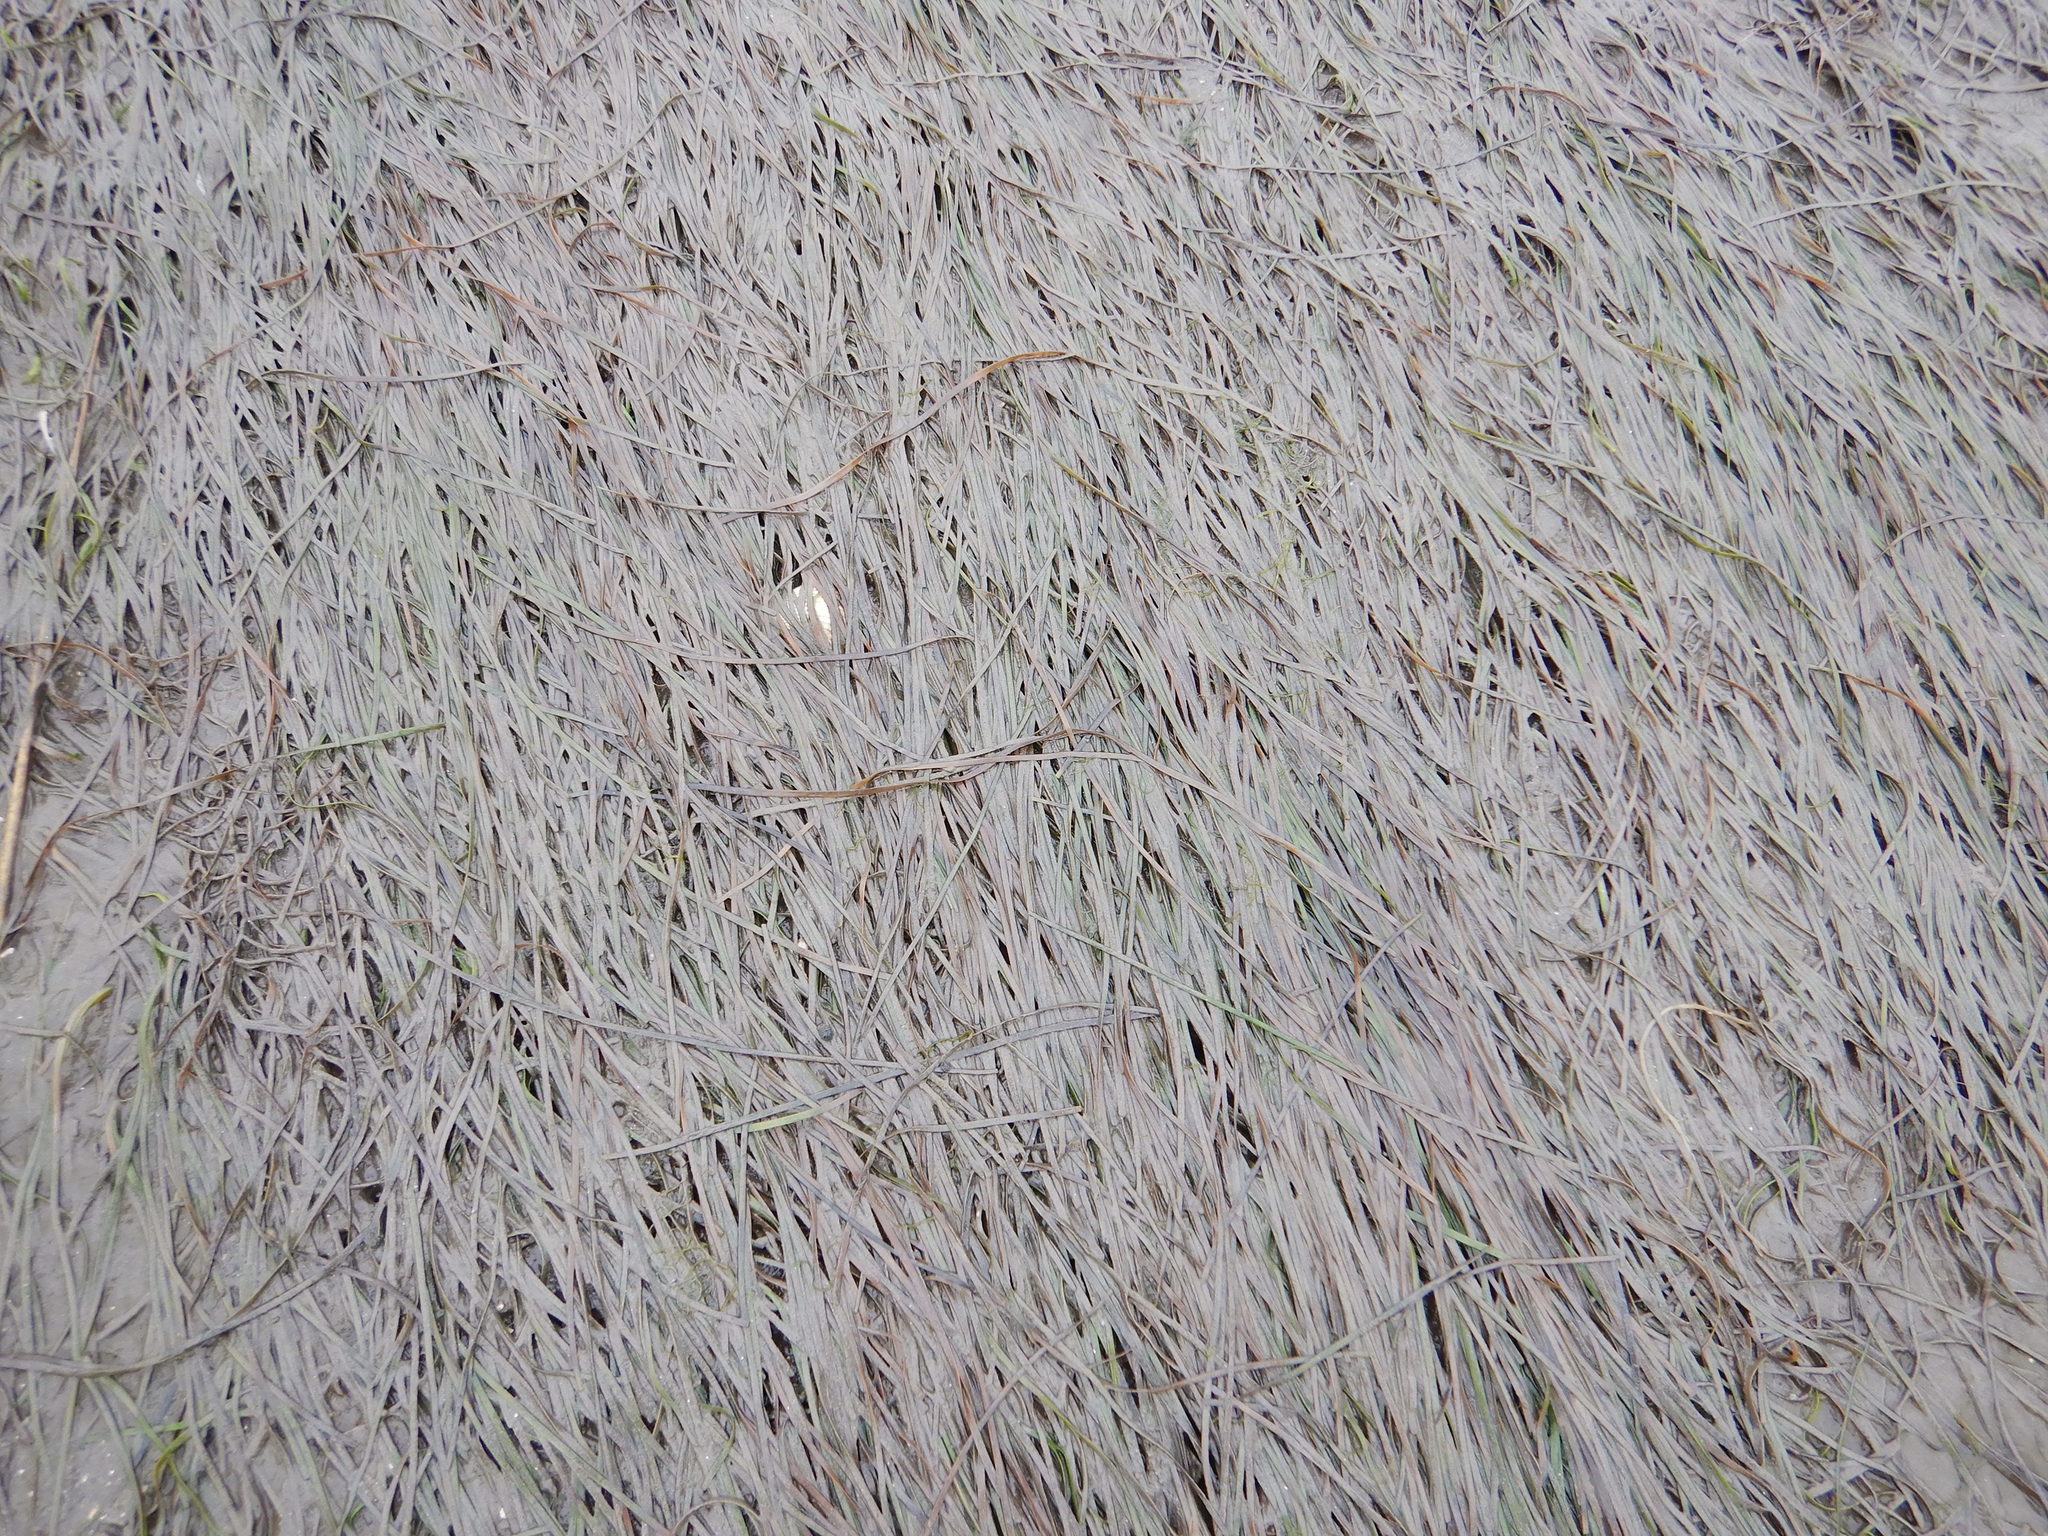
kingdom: Plantae
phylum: Tracheophyta
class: Liliopsida
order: Alismatales
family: Zosteraceae
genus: Zostera
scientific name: Zostera noltii
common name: Dwarf eelgrass
